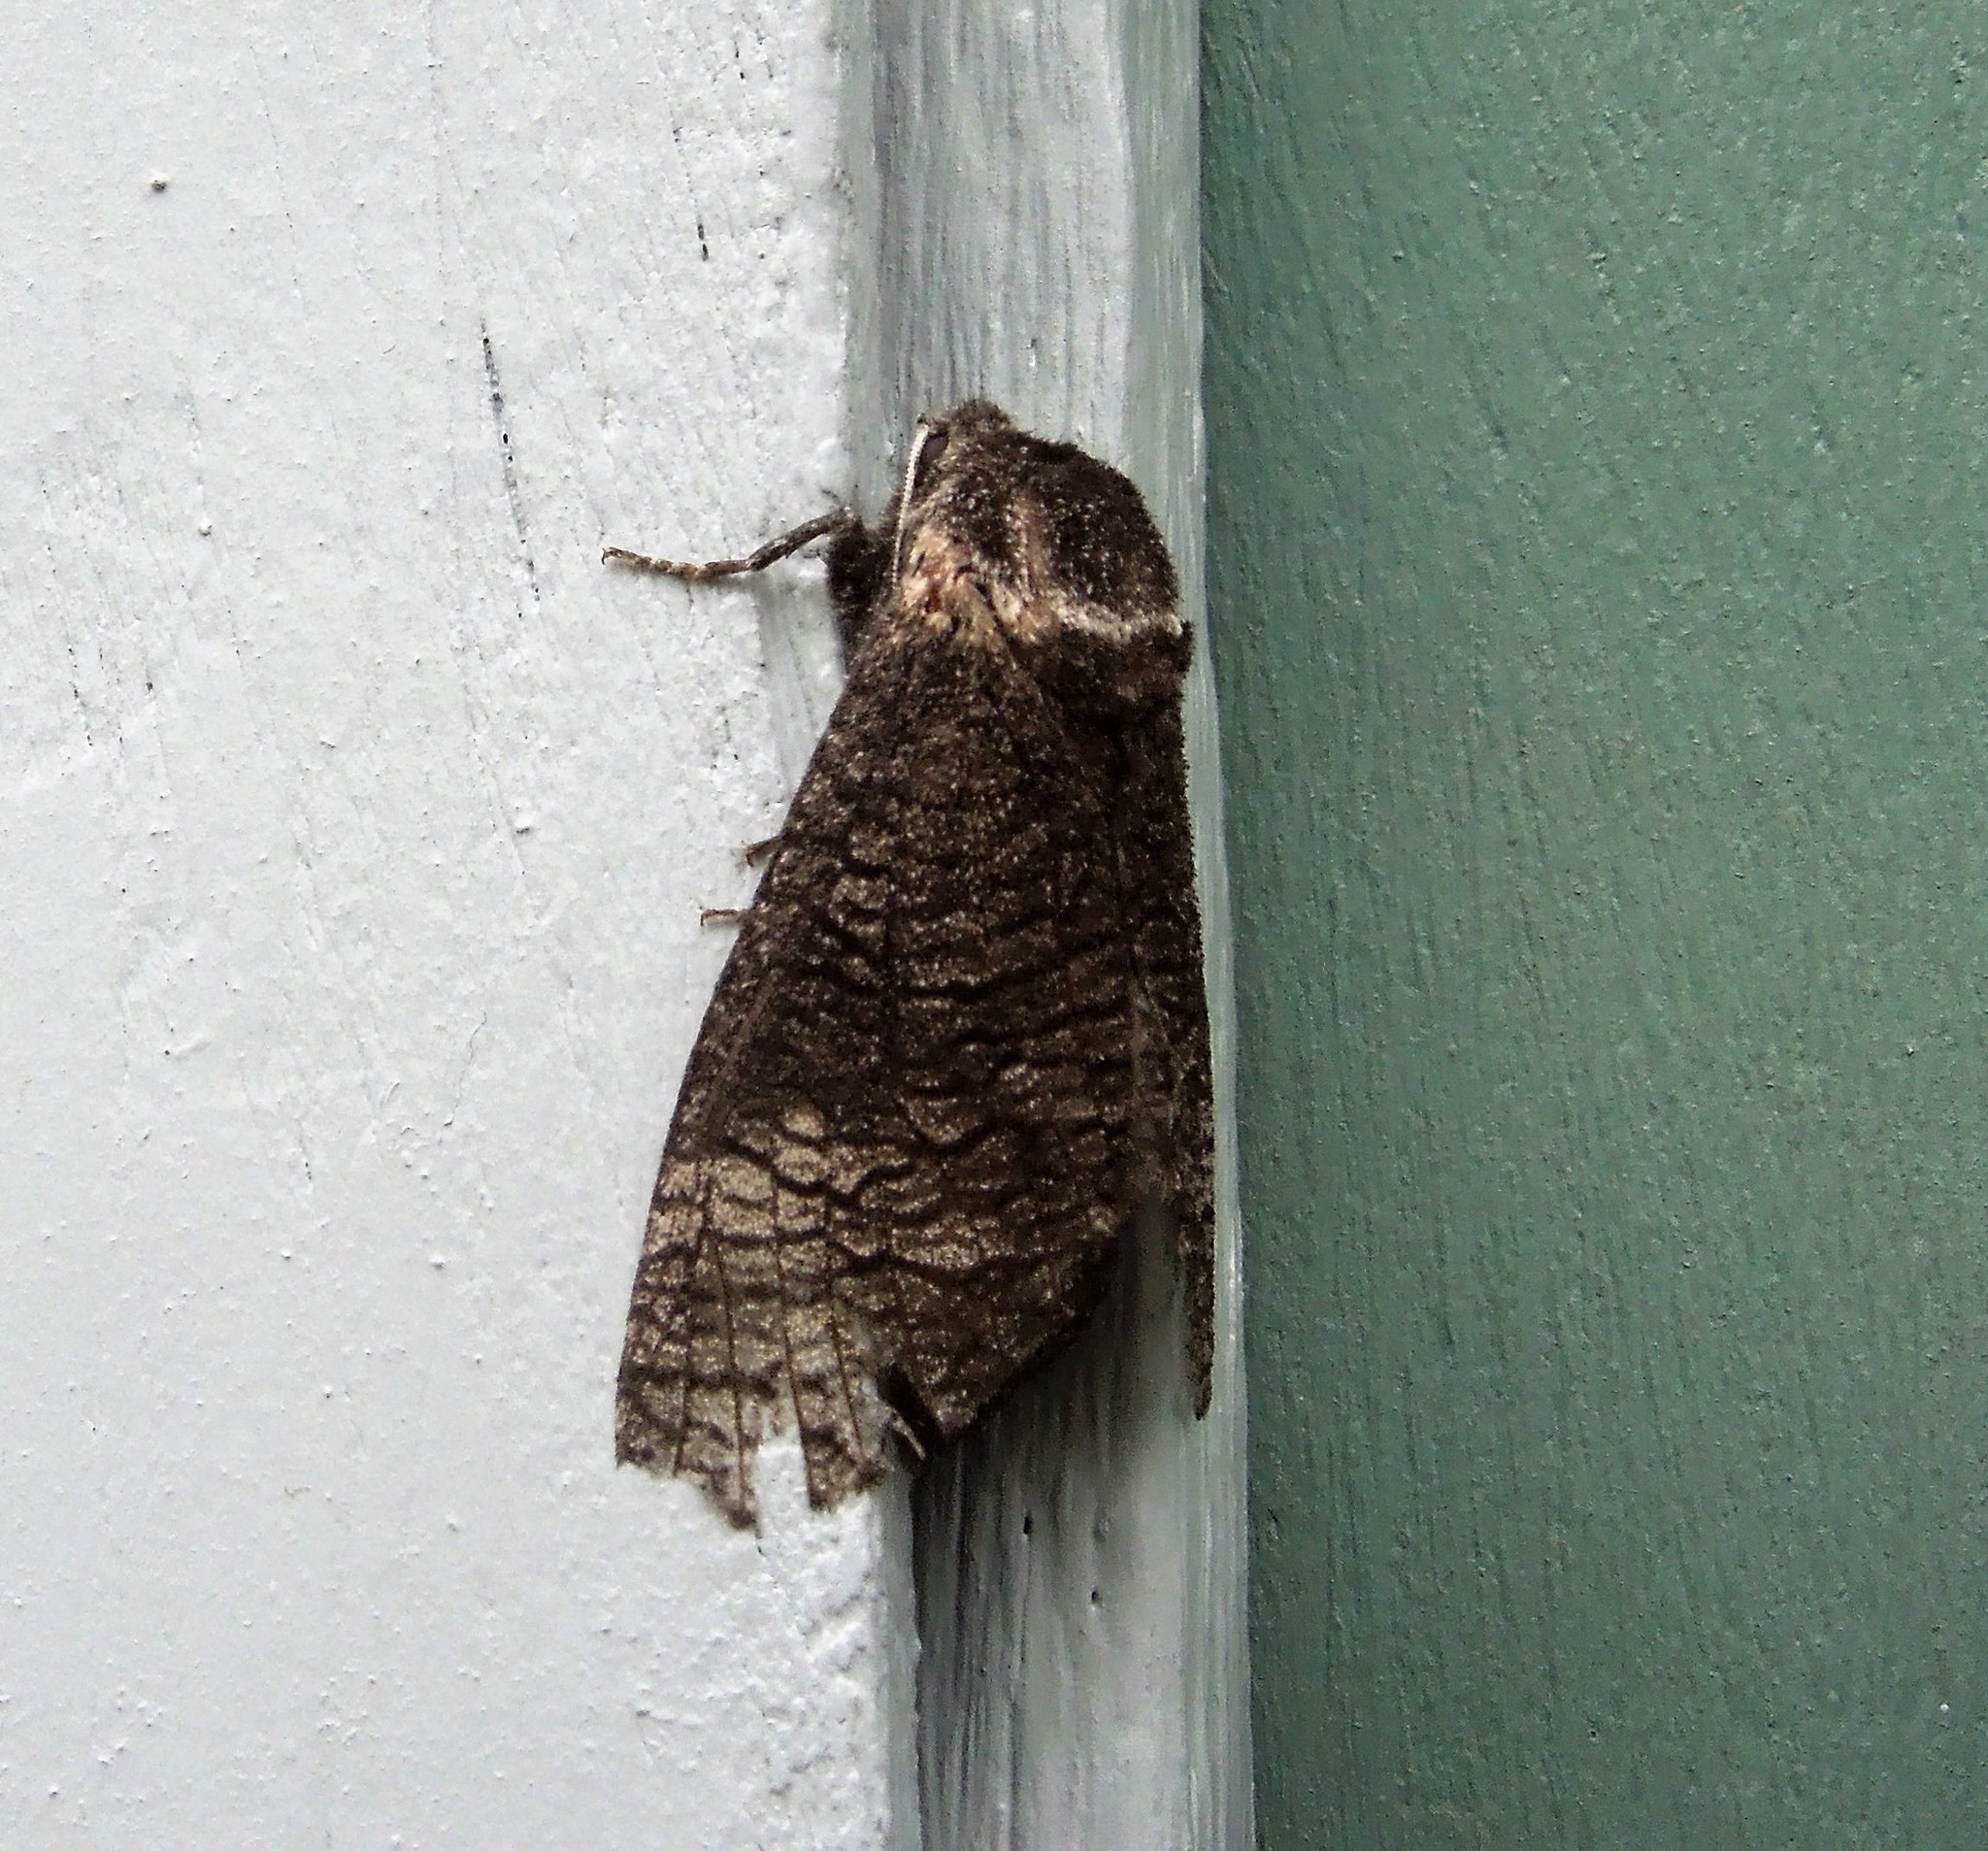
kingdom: Animalia
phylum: Arthropoda
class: Insecta
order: Lepidoptera
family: Cossidae
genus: Acossus
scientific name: Acossus centerensis
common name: Poplar carpenterworm moth
